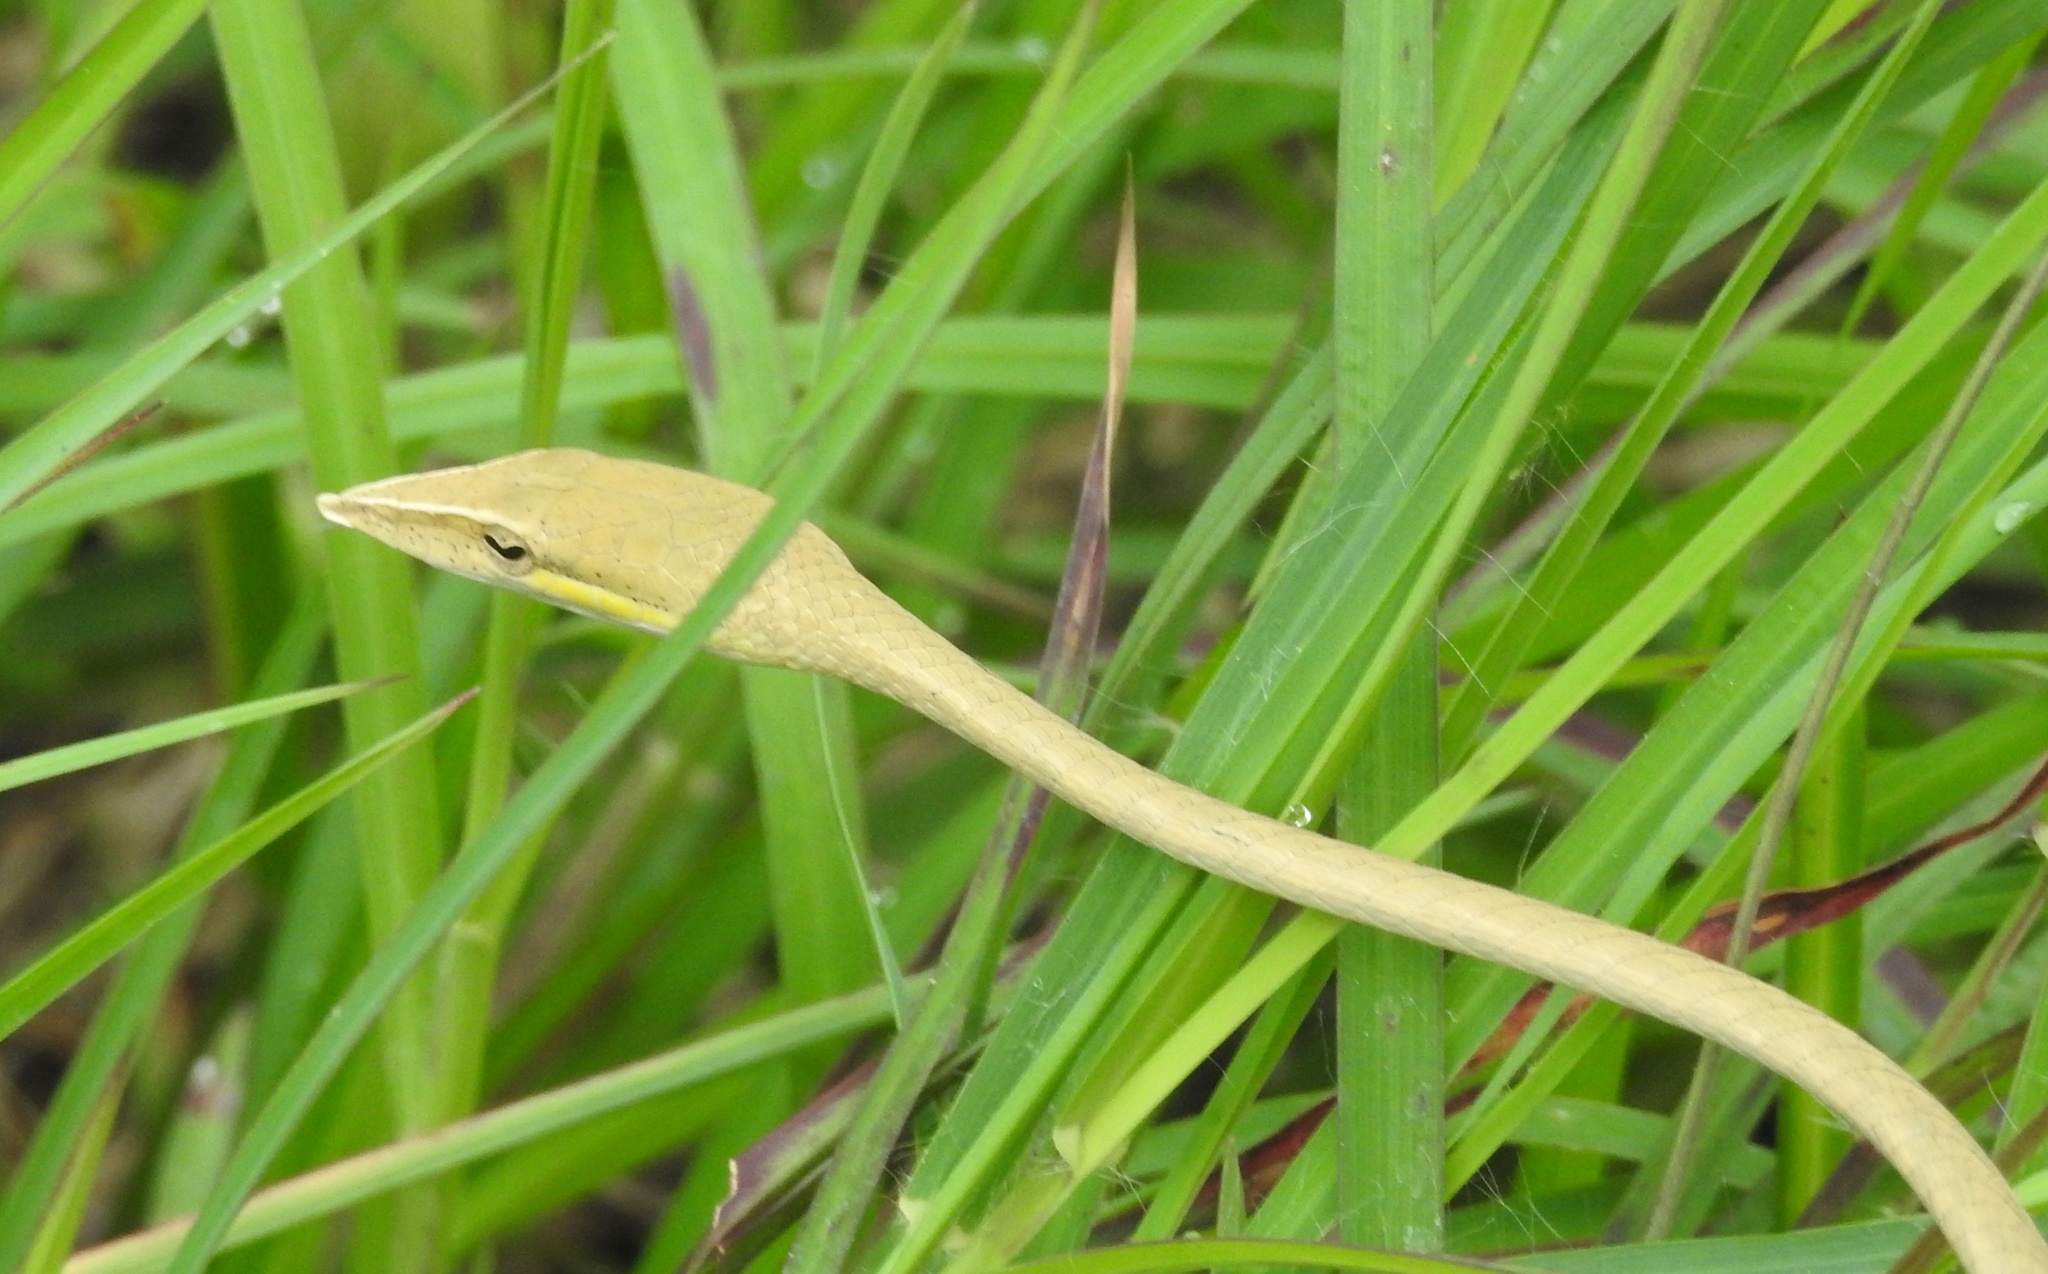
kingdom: Animalia
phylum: Chordata
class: Squamata
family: Colubridae
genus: Ahaetulla
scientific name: Ahaetulla laudankia
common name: Laudankia vine snake
